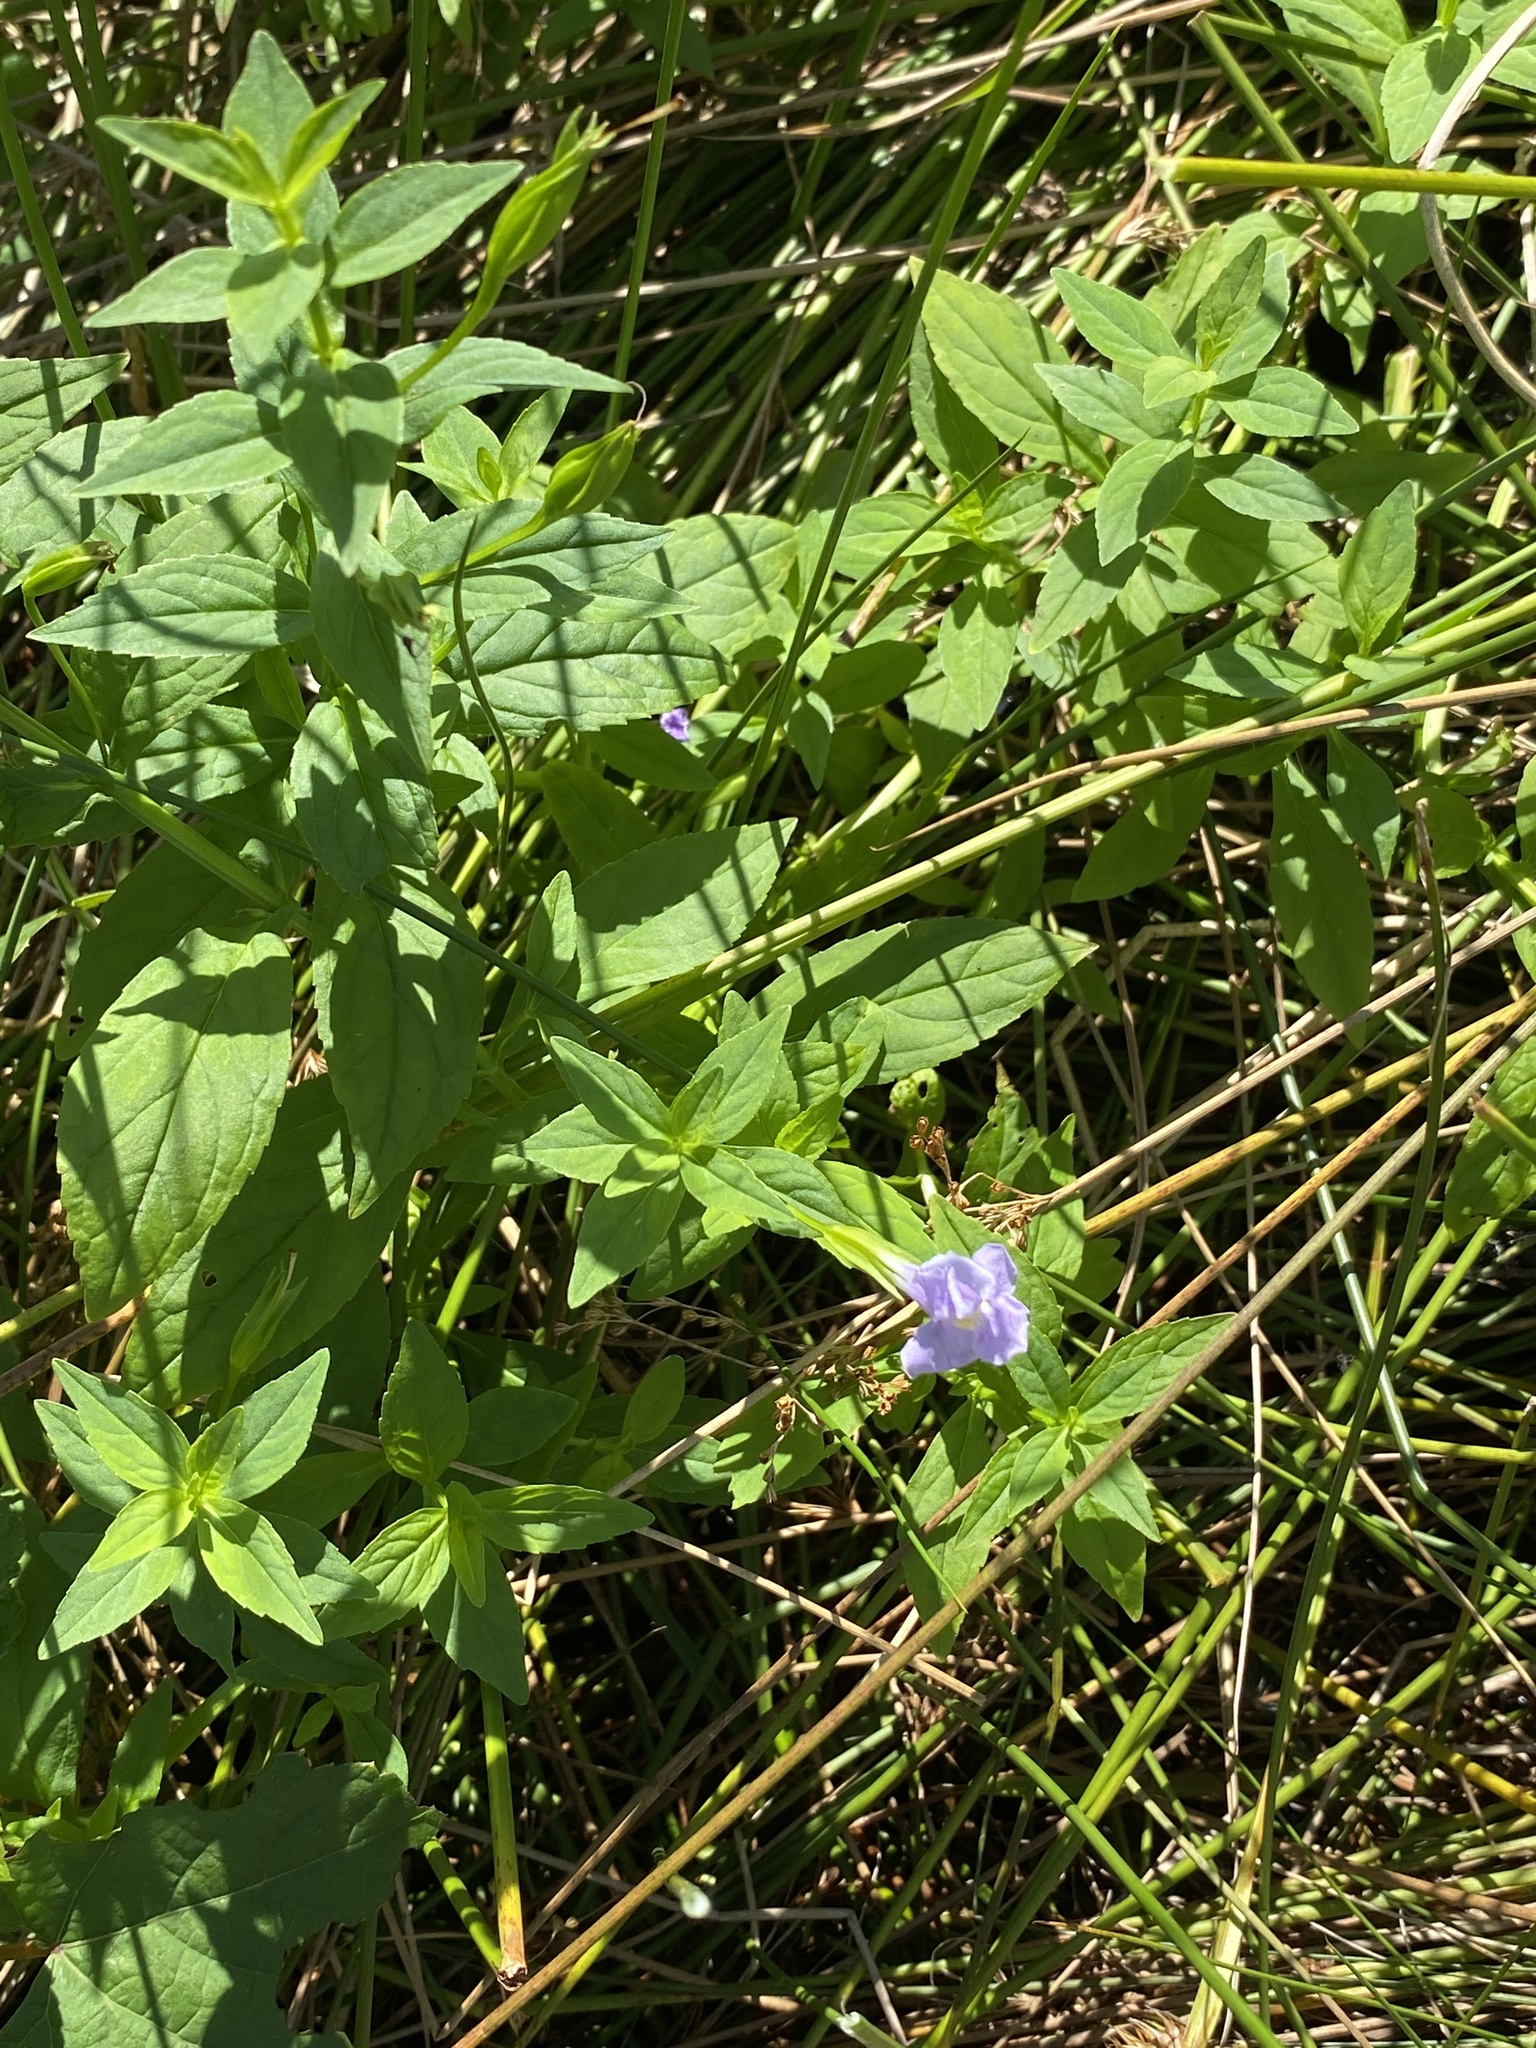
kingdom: Plantae
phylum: Tracheophyta
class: Magnoliopsida
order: Lamiales
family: Phrymaceae
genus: Mimulus
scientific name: Mimulus ringens
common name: Allegheny monkeyflower
